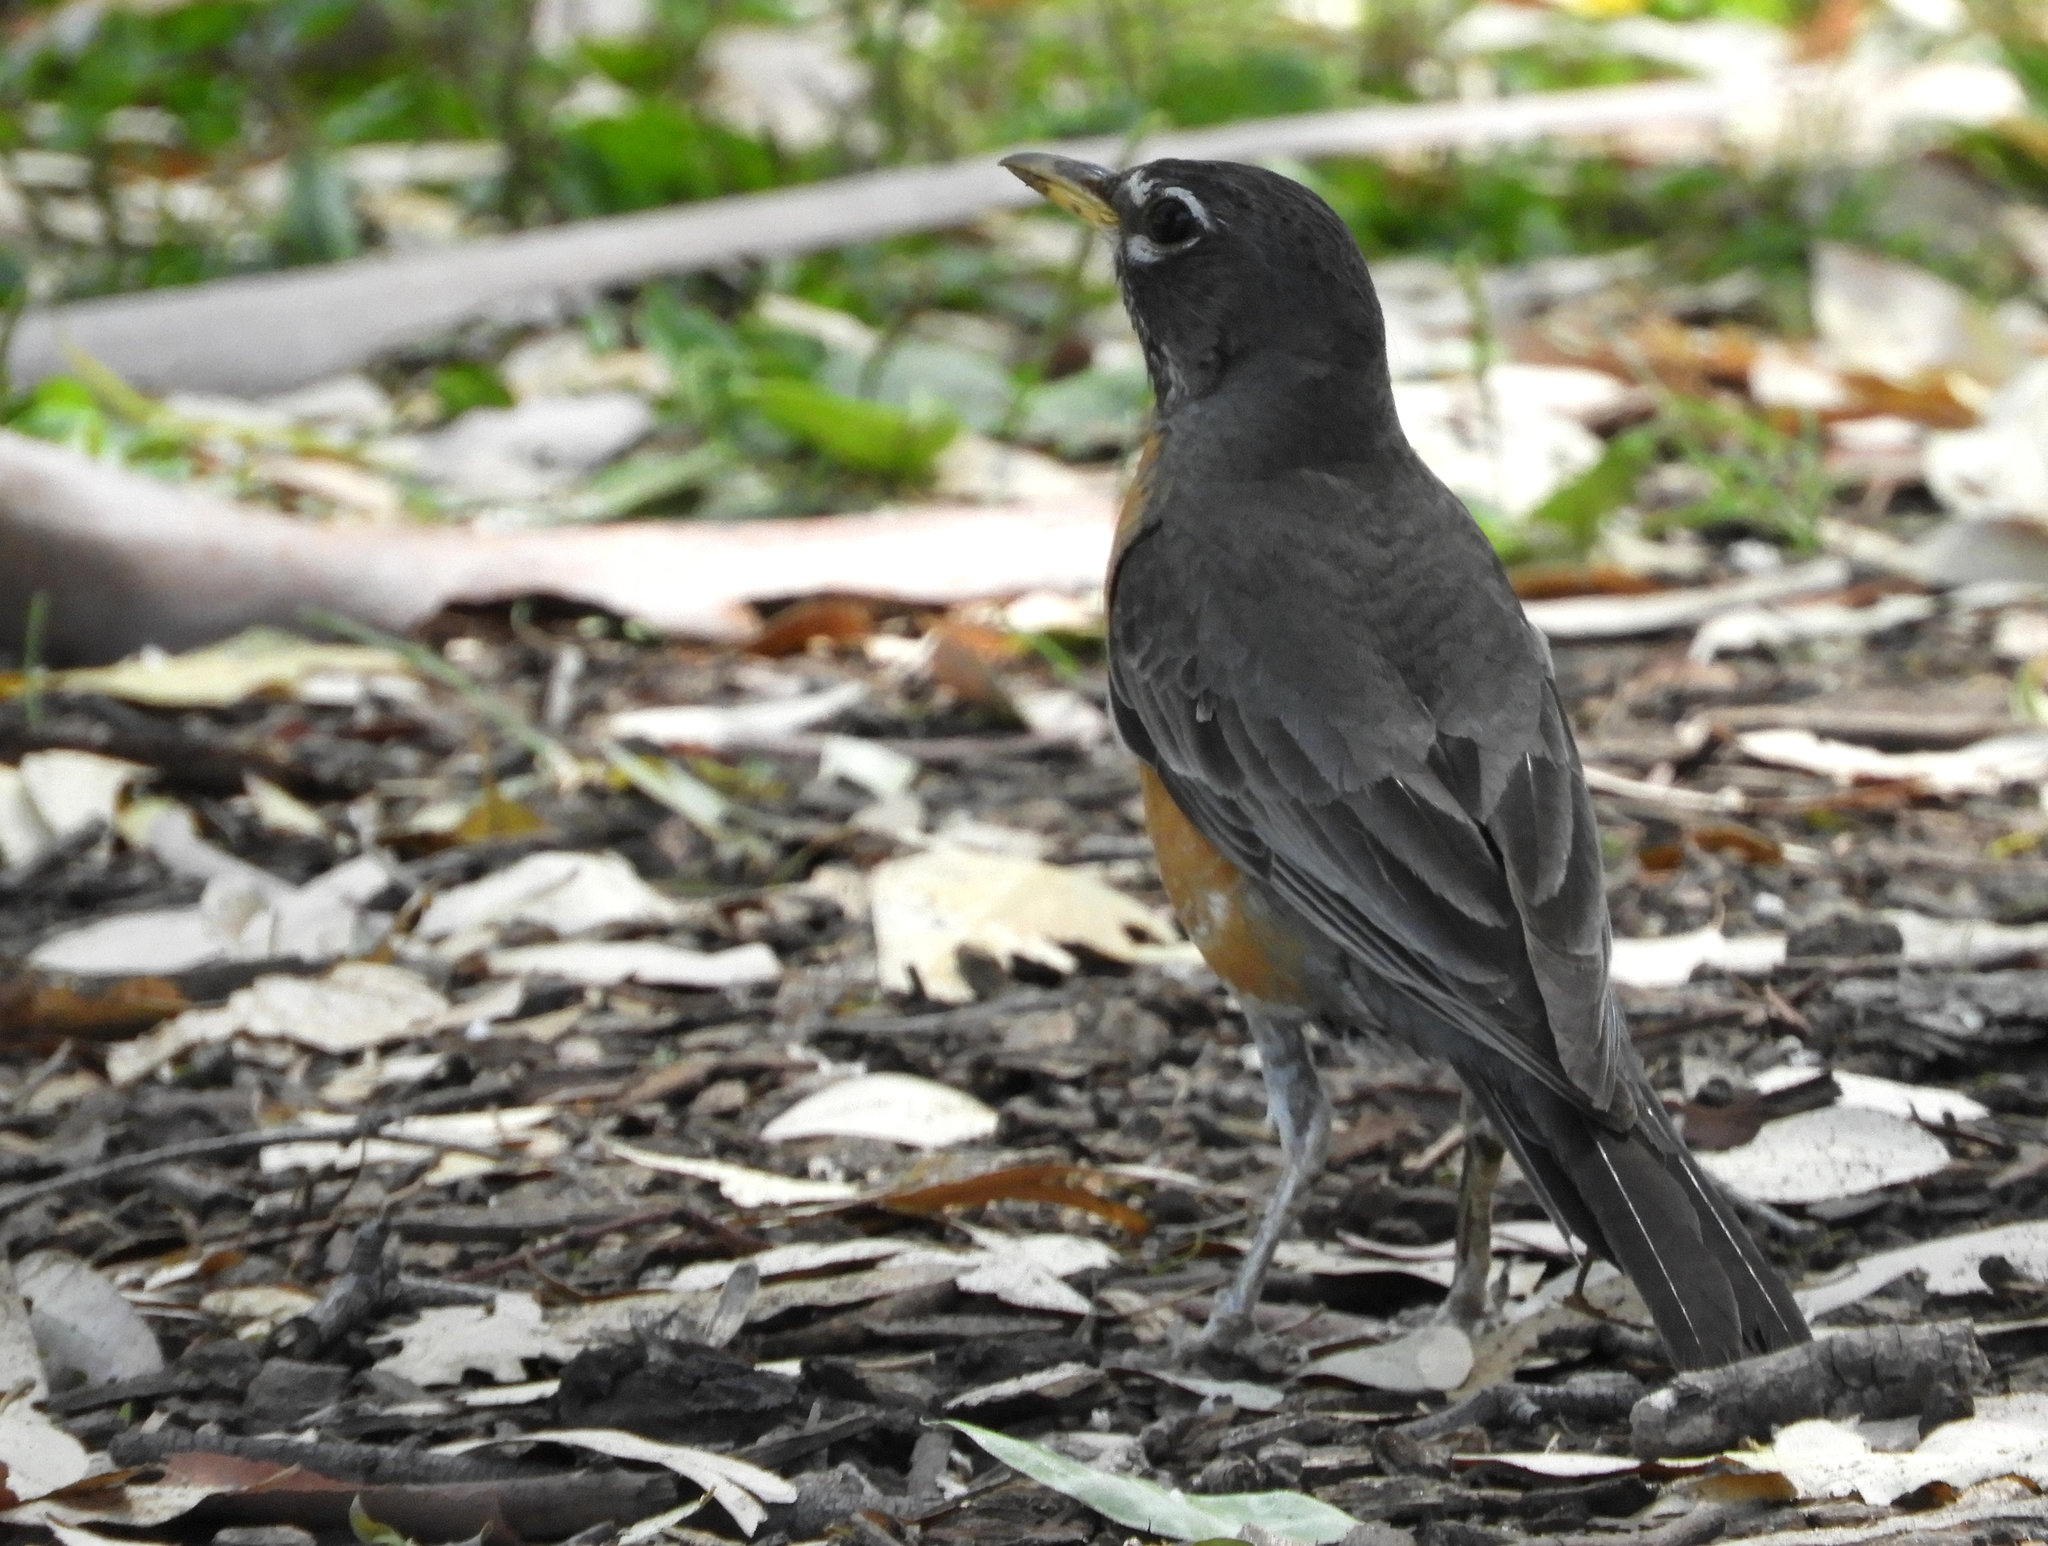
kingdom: Animalia
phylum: Chordata
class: Aves
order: Passeriformes
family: Turdidae
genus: Turdus
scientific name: Turdus migratorius
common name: American robin
